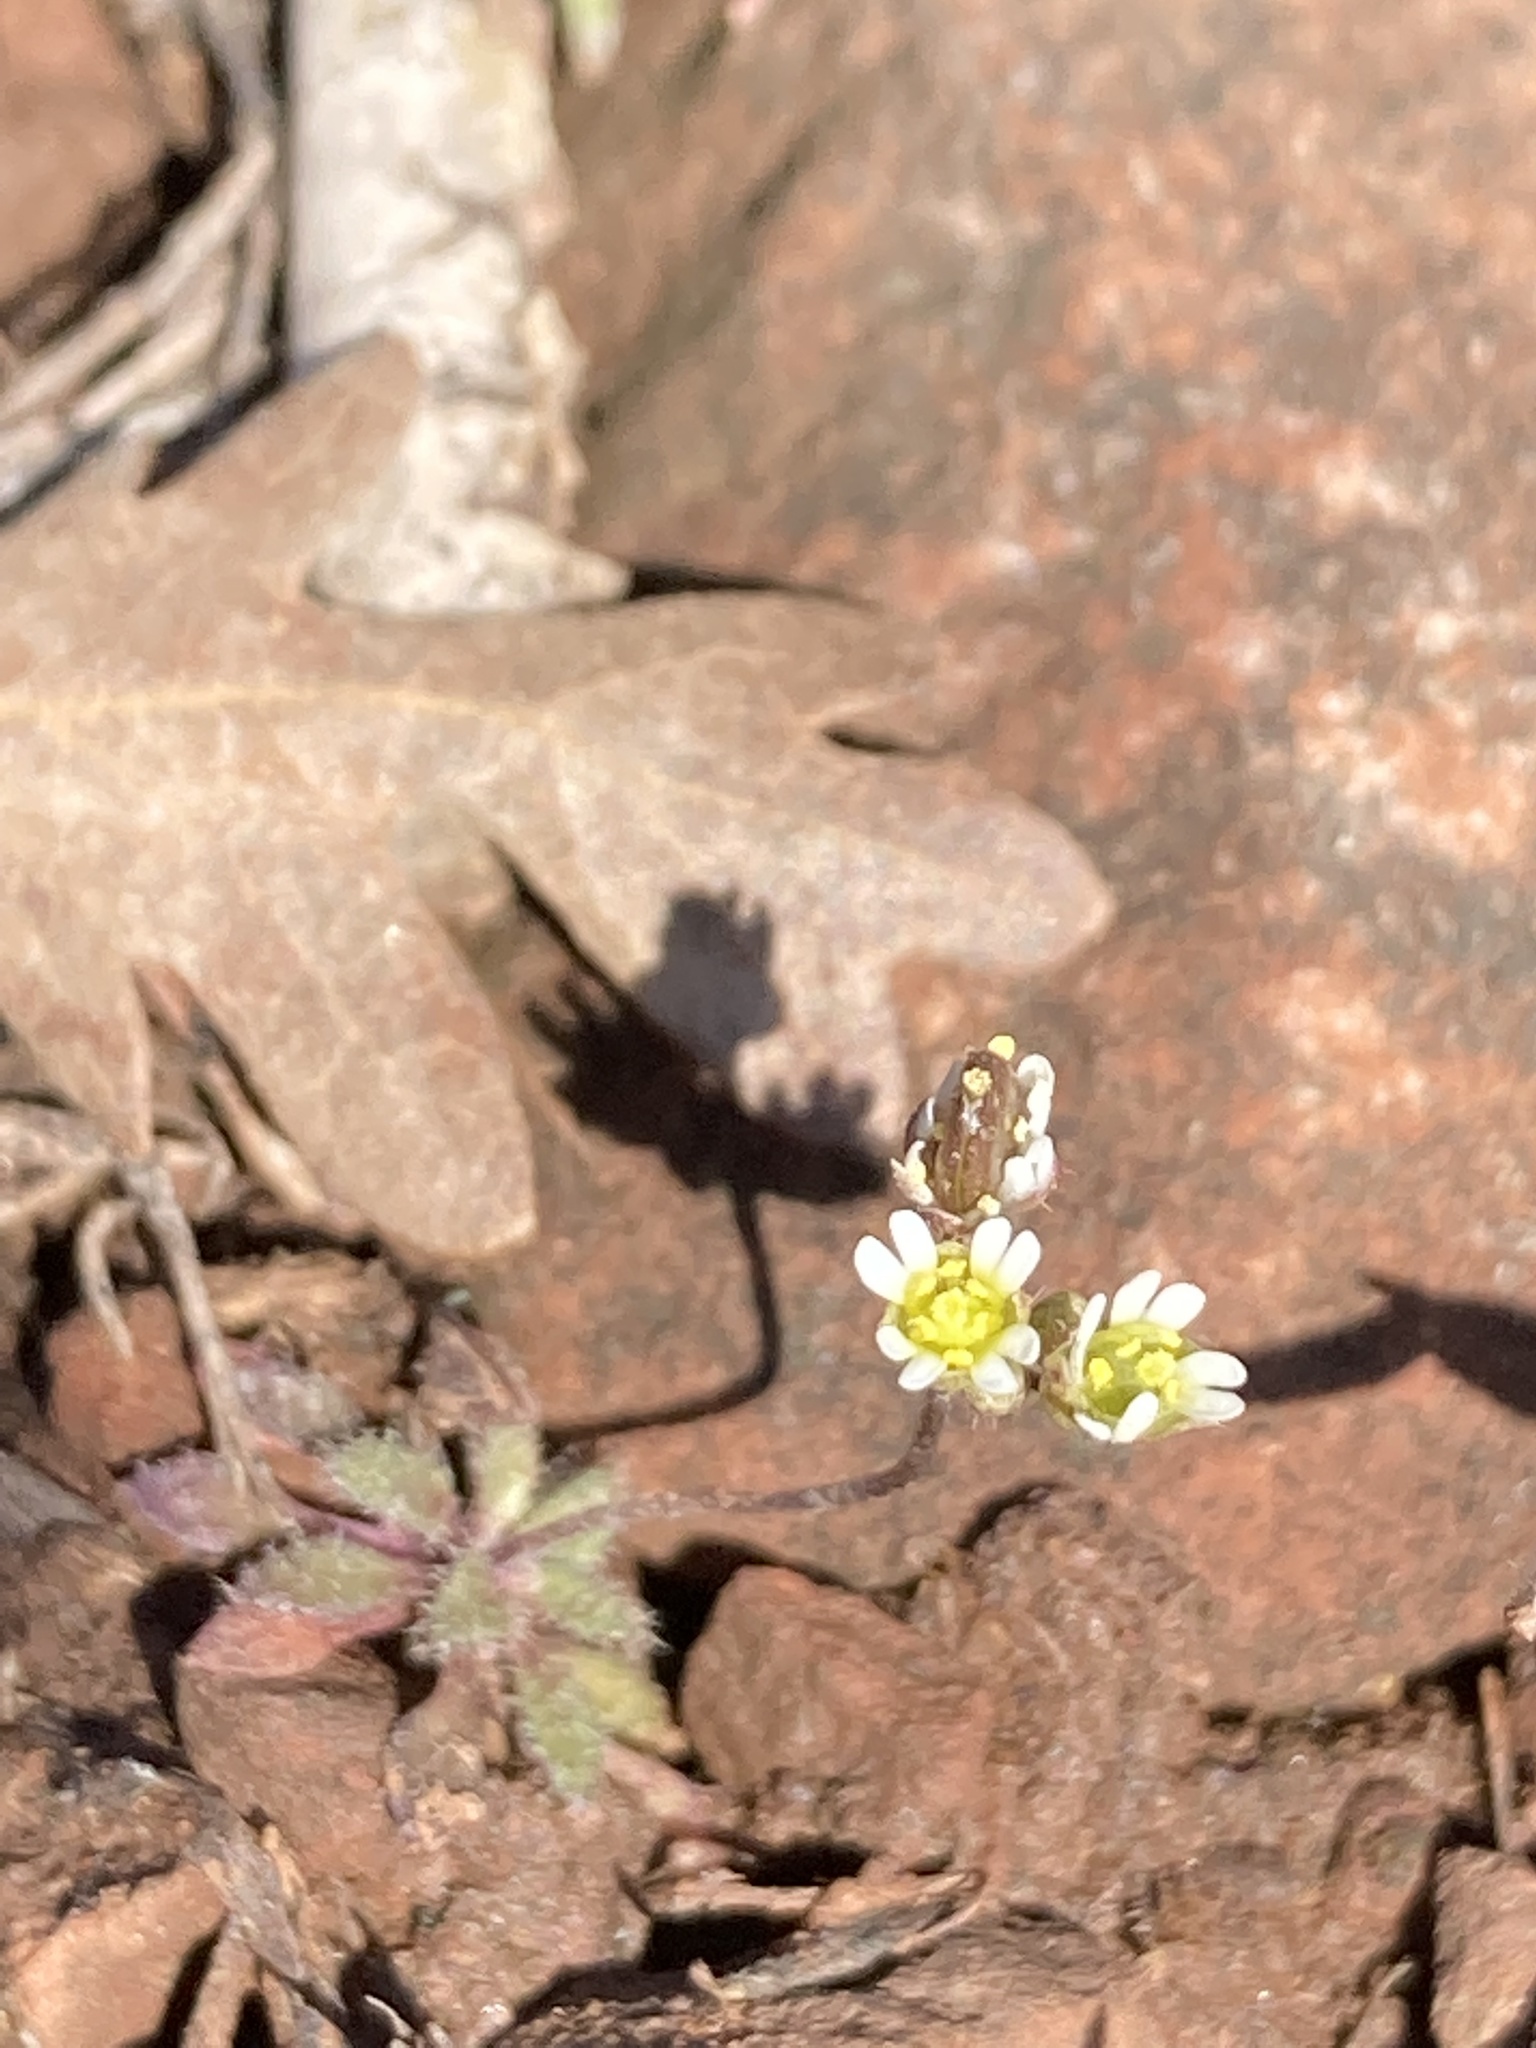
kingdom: Plantae
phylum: Tracheophyta
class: Magnoliopsida
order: Brassicales
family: Brassicaceae
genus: Draba
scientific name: Draba verna
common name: Spring draba
